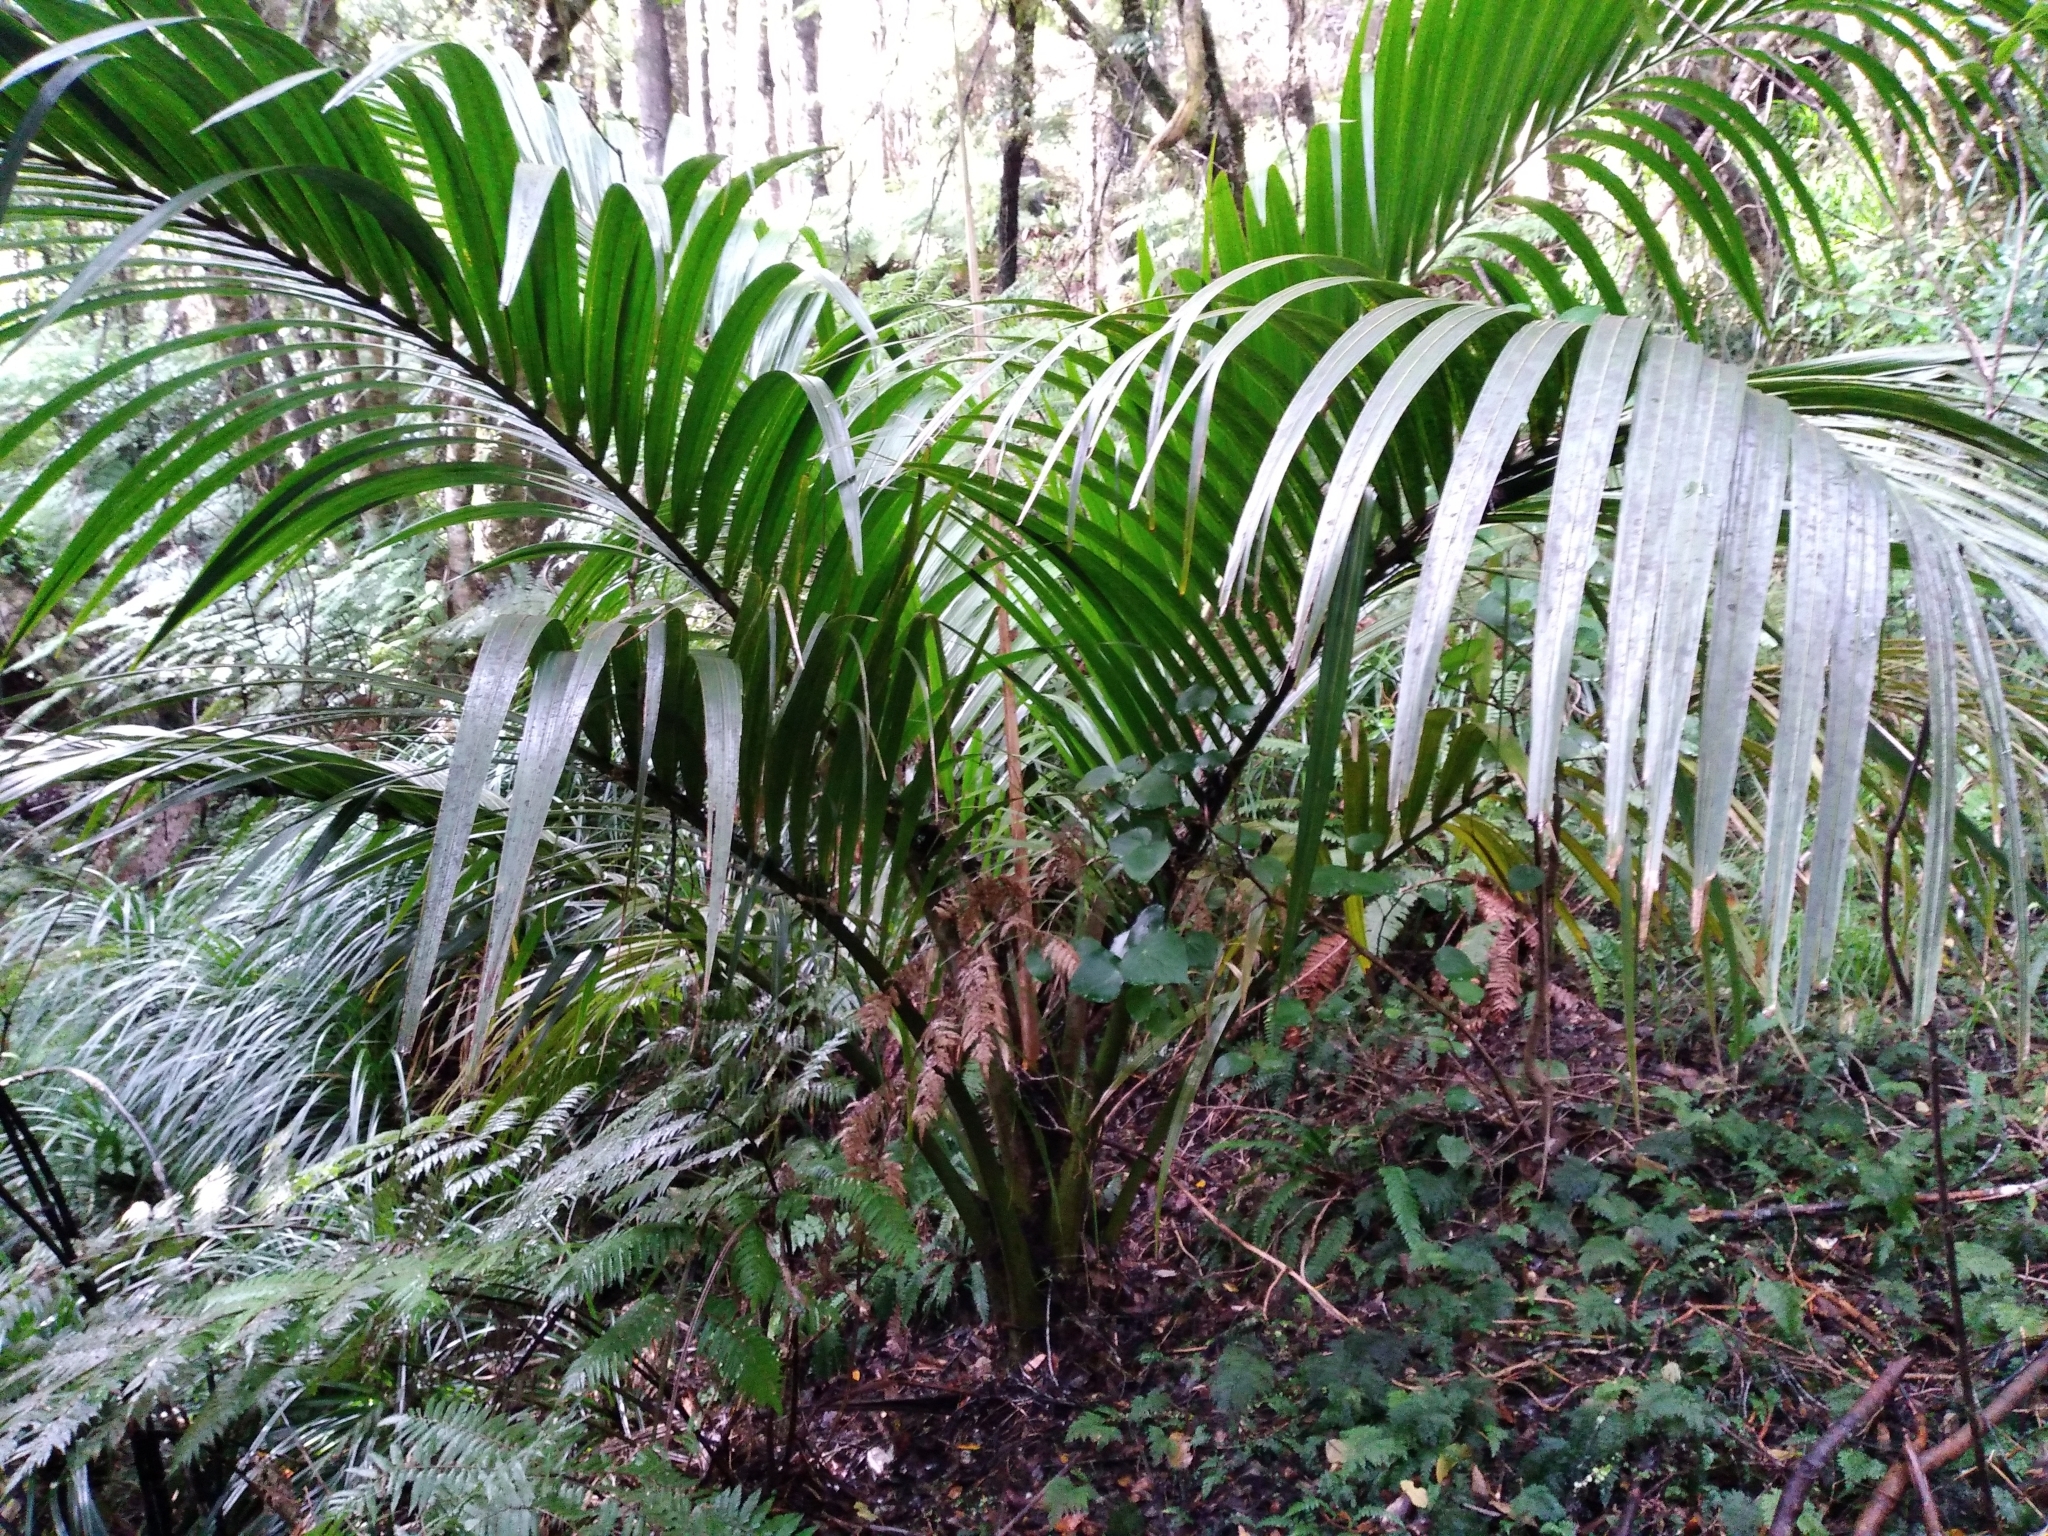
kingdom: Plantae
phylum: Tracheophyta
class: Liliopsida
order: Arecales
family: Arecaceae
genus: Rhopalostylis
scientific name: Rhopalostylis sapida
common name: Feather-duster palm
